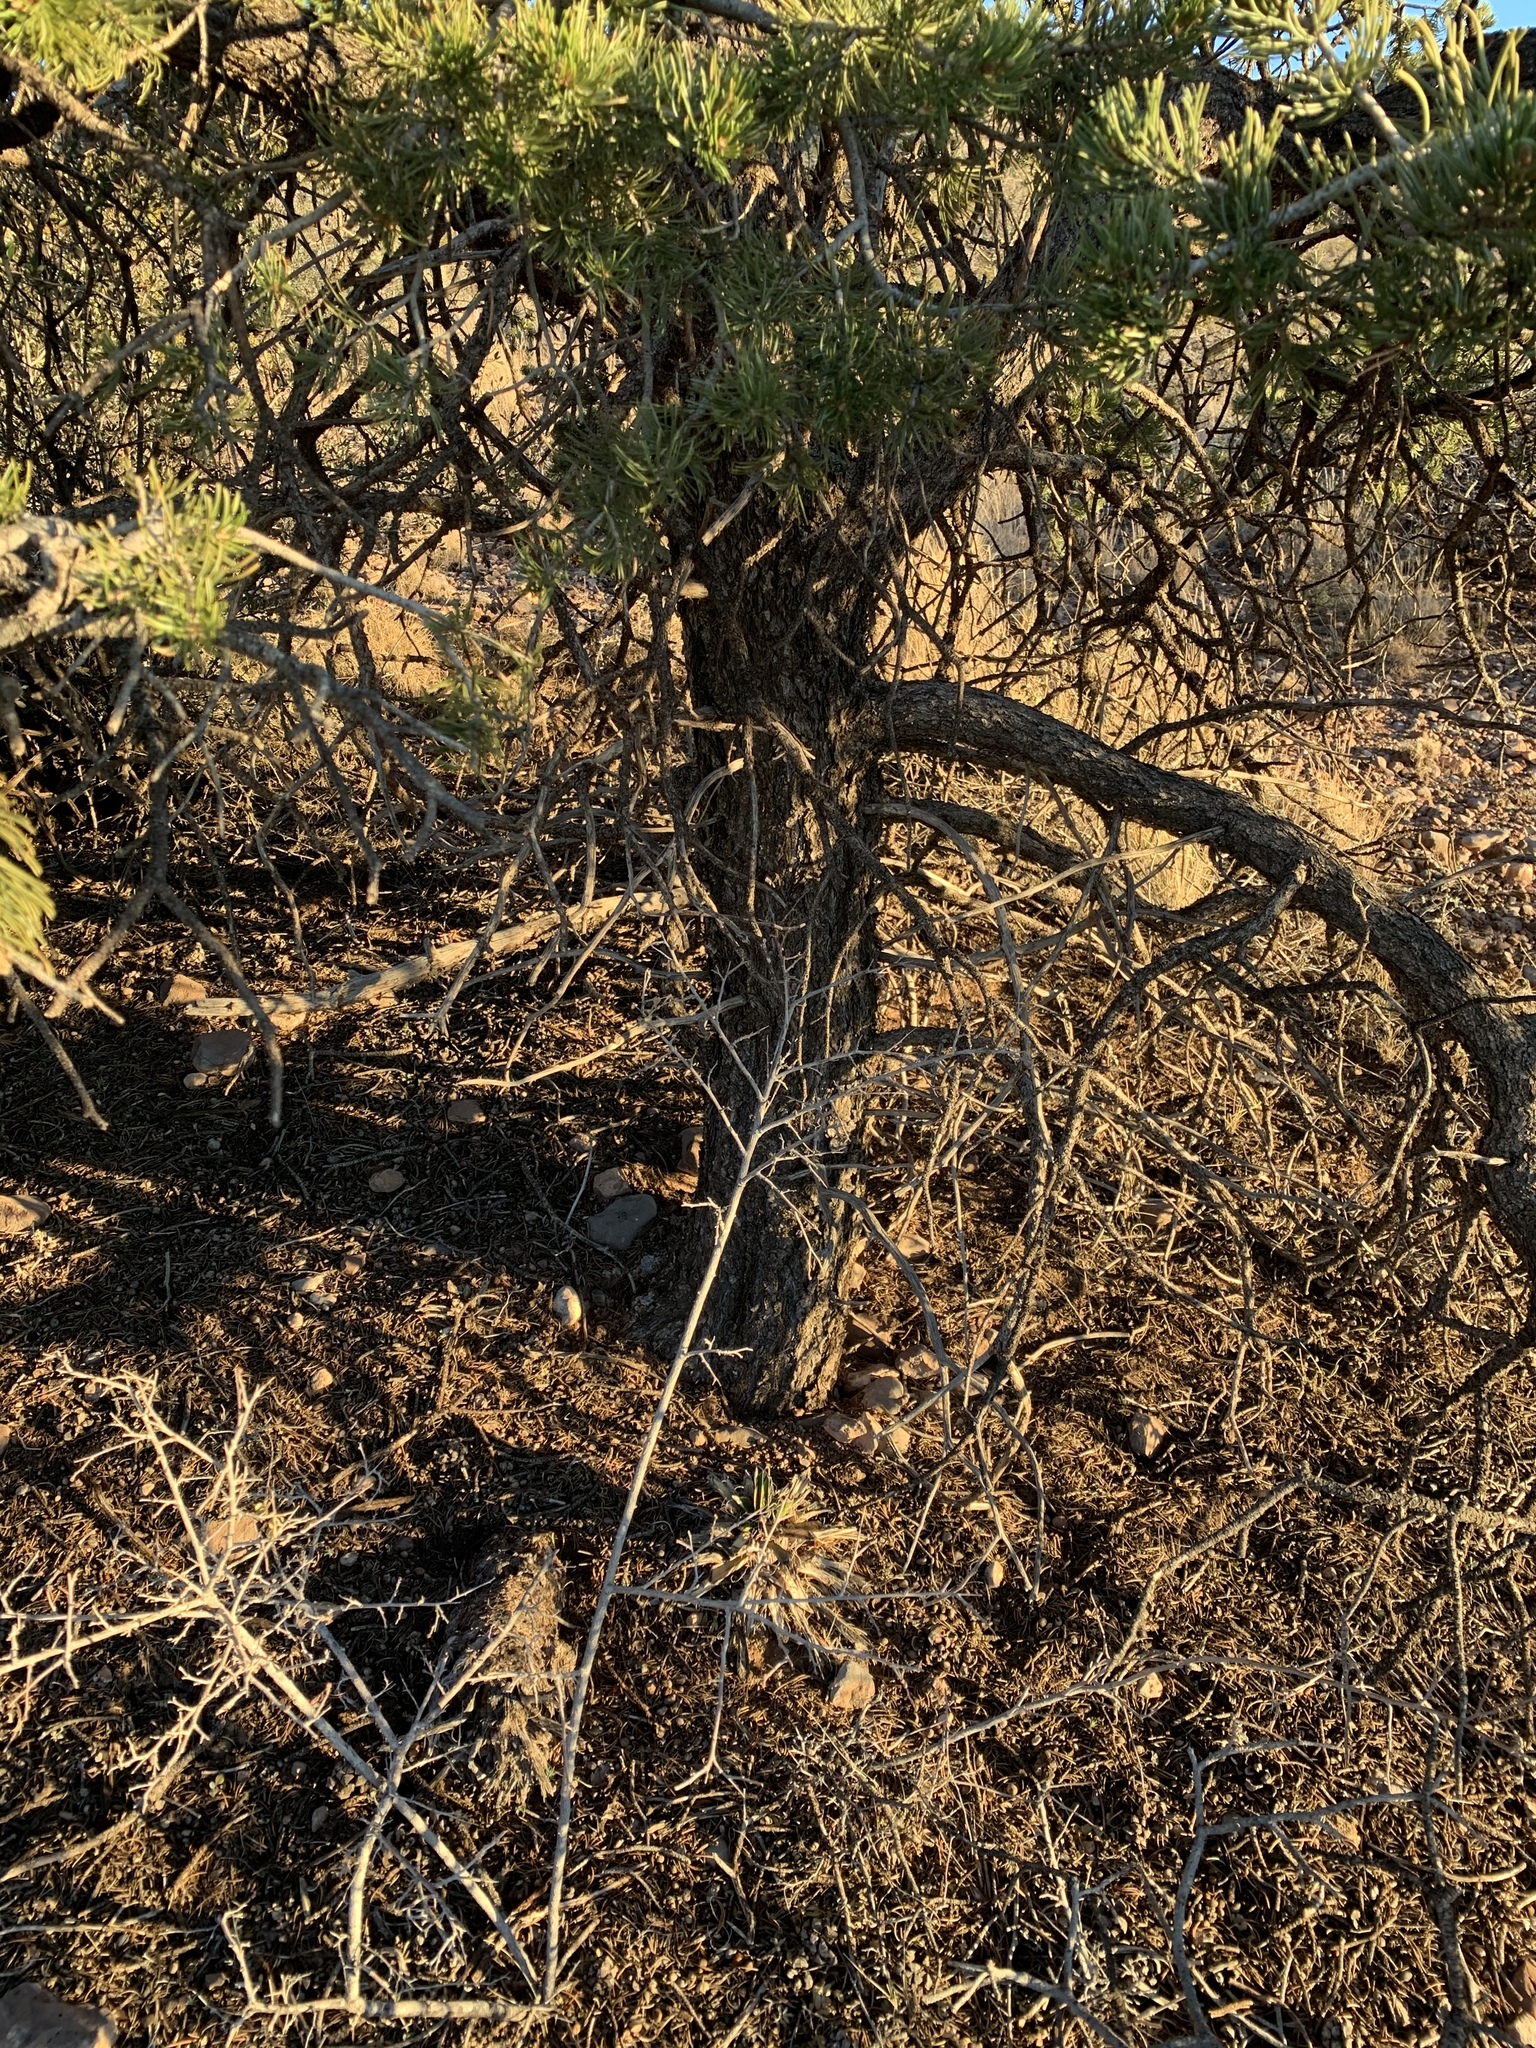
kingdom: Plantae
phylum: Tracheophyta
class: Pinopsida
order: Pinales
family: Pinaceae
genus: Pinus
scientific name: Pinus edulis
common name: Colorado pinyon
